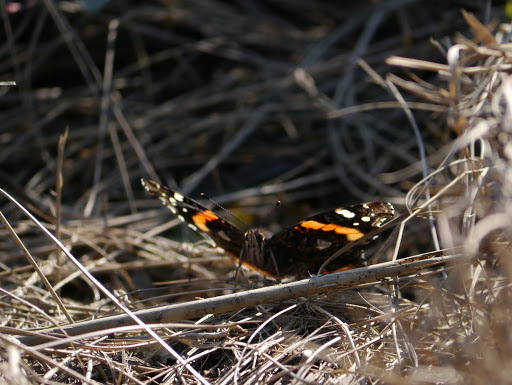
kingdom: Animalia
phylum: Arthropoda
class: Insecta
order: Lepidoptera
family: Nymphalidae
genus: Vanessa
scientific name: Vanessa atalanta
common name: Red admiral
